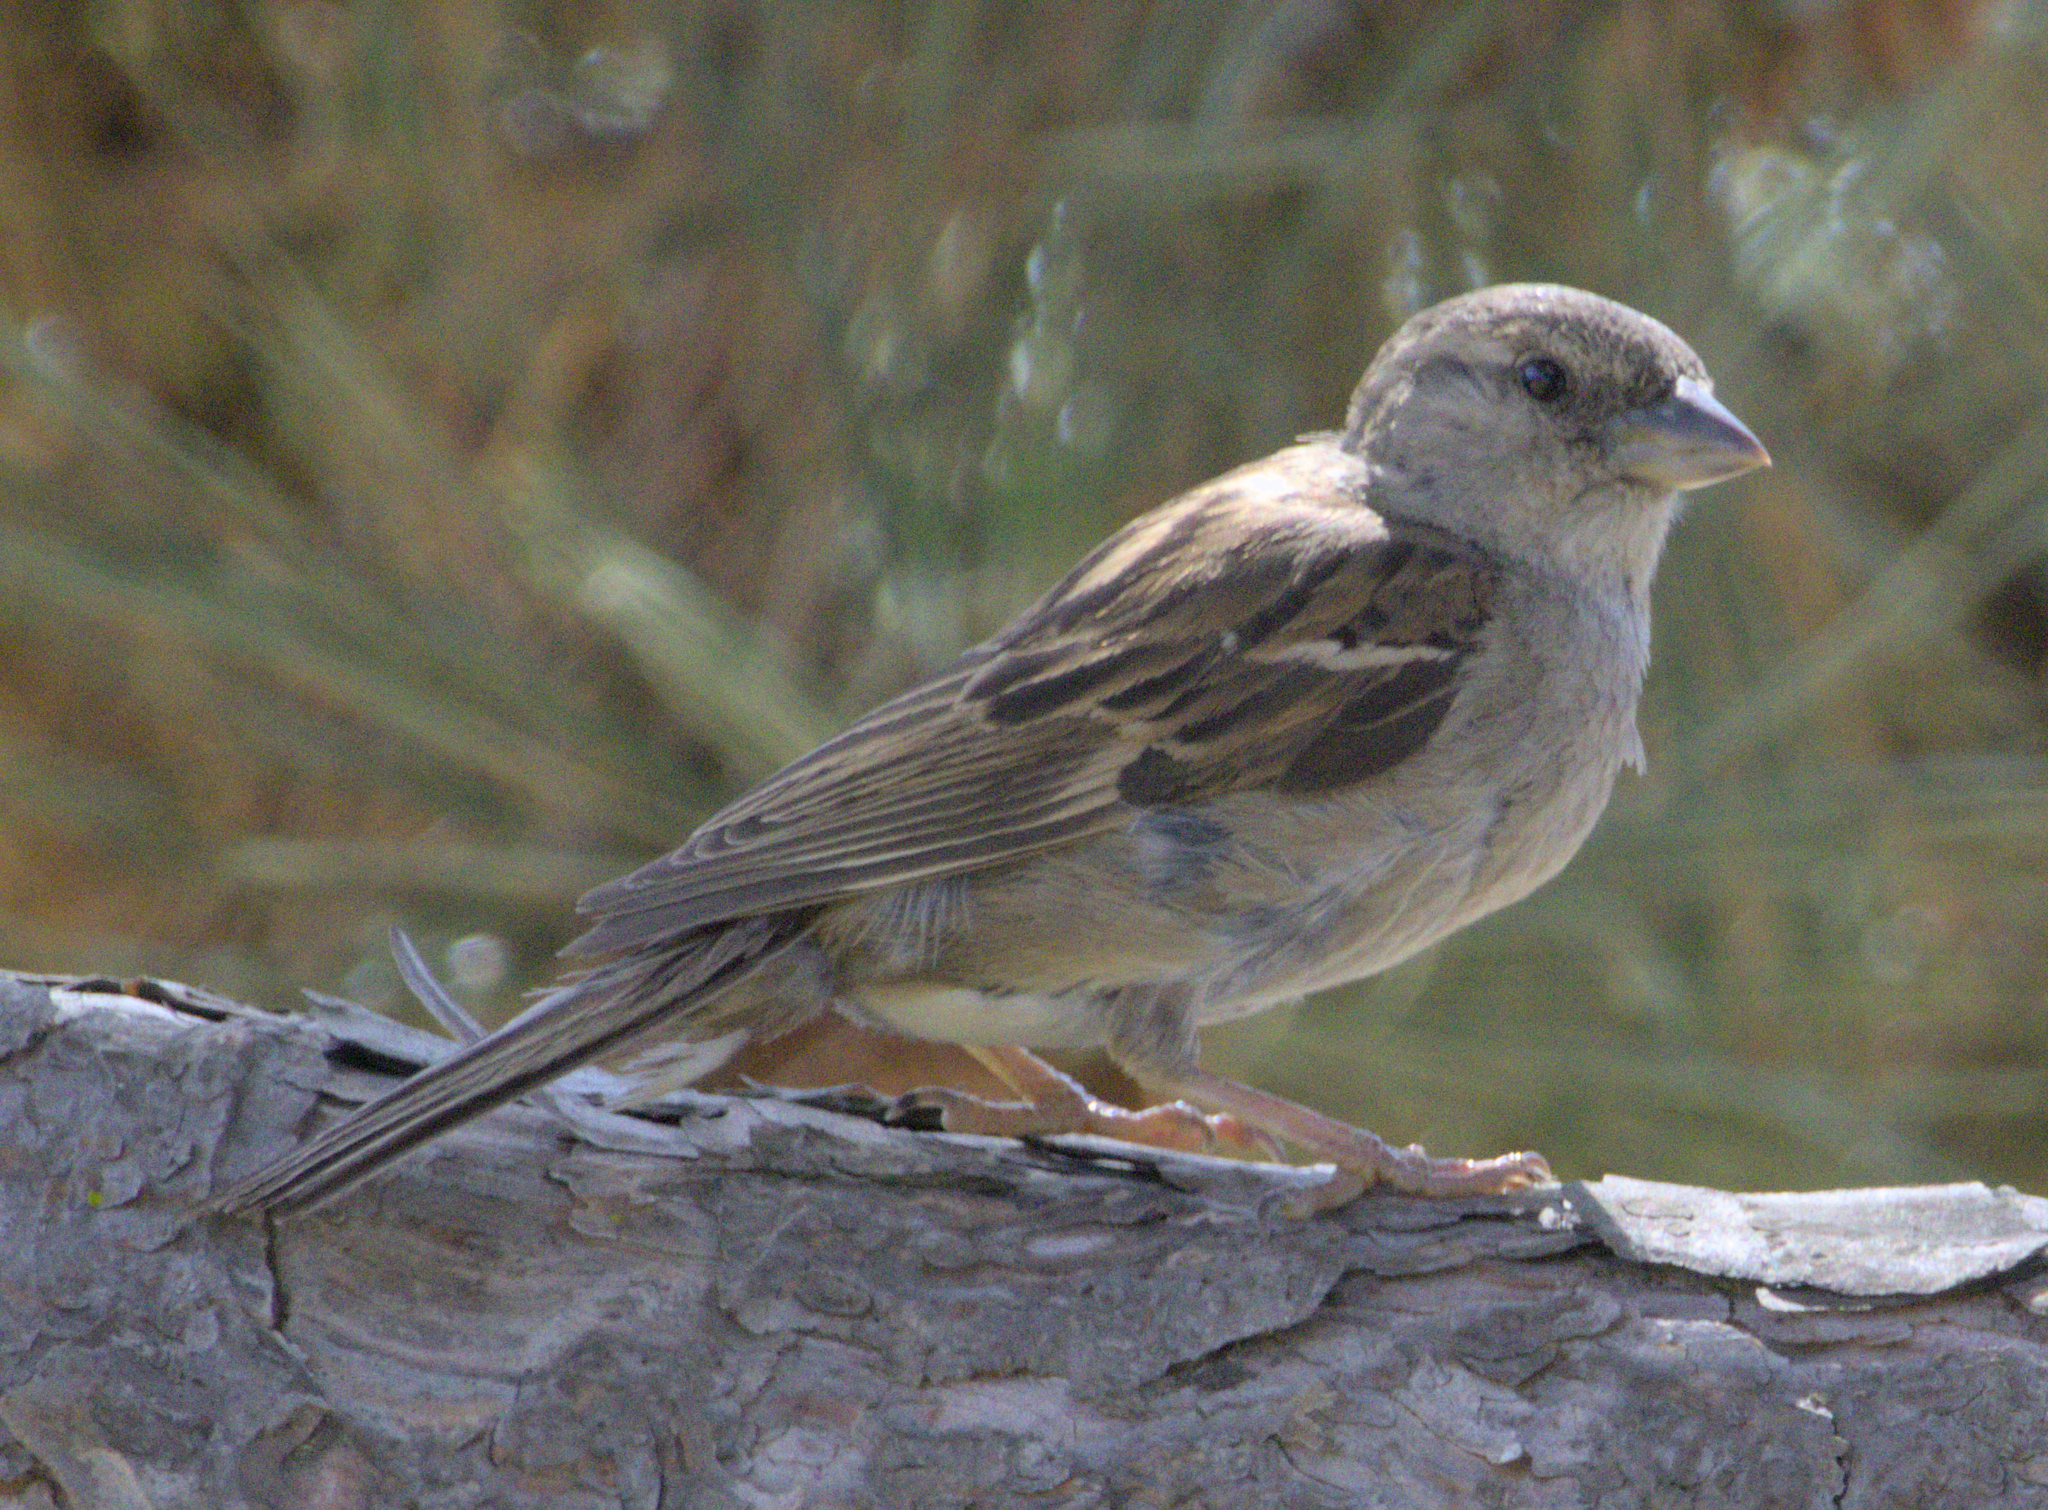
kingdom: Animalia
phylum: Chordata
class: Aves
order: Passeriformes
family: Passeridae
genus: Passer
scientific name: Passer domesticus
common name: House sparrow
